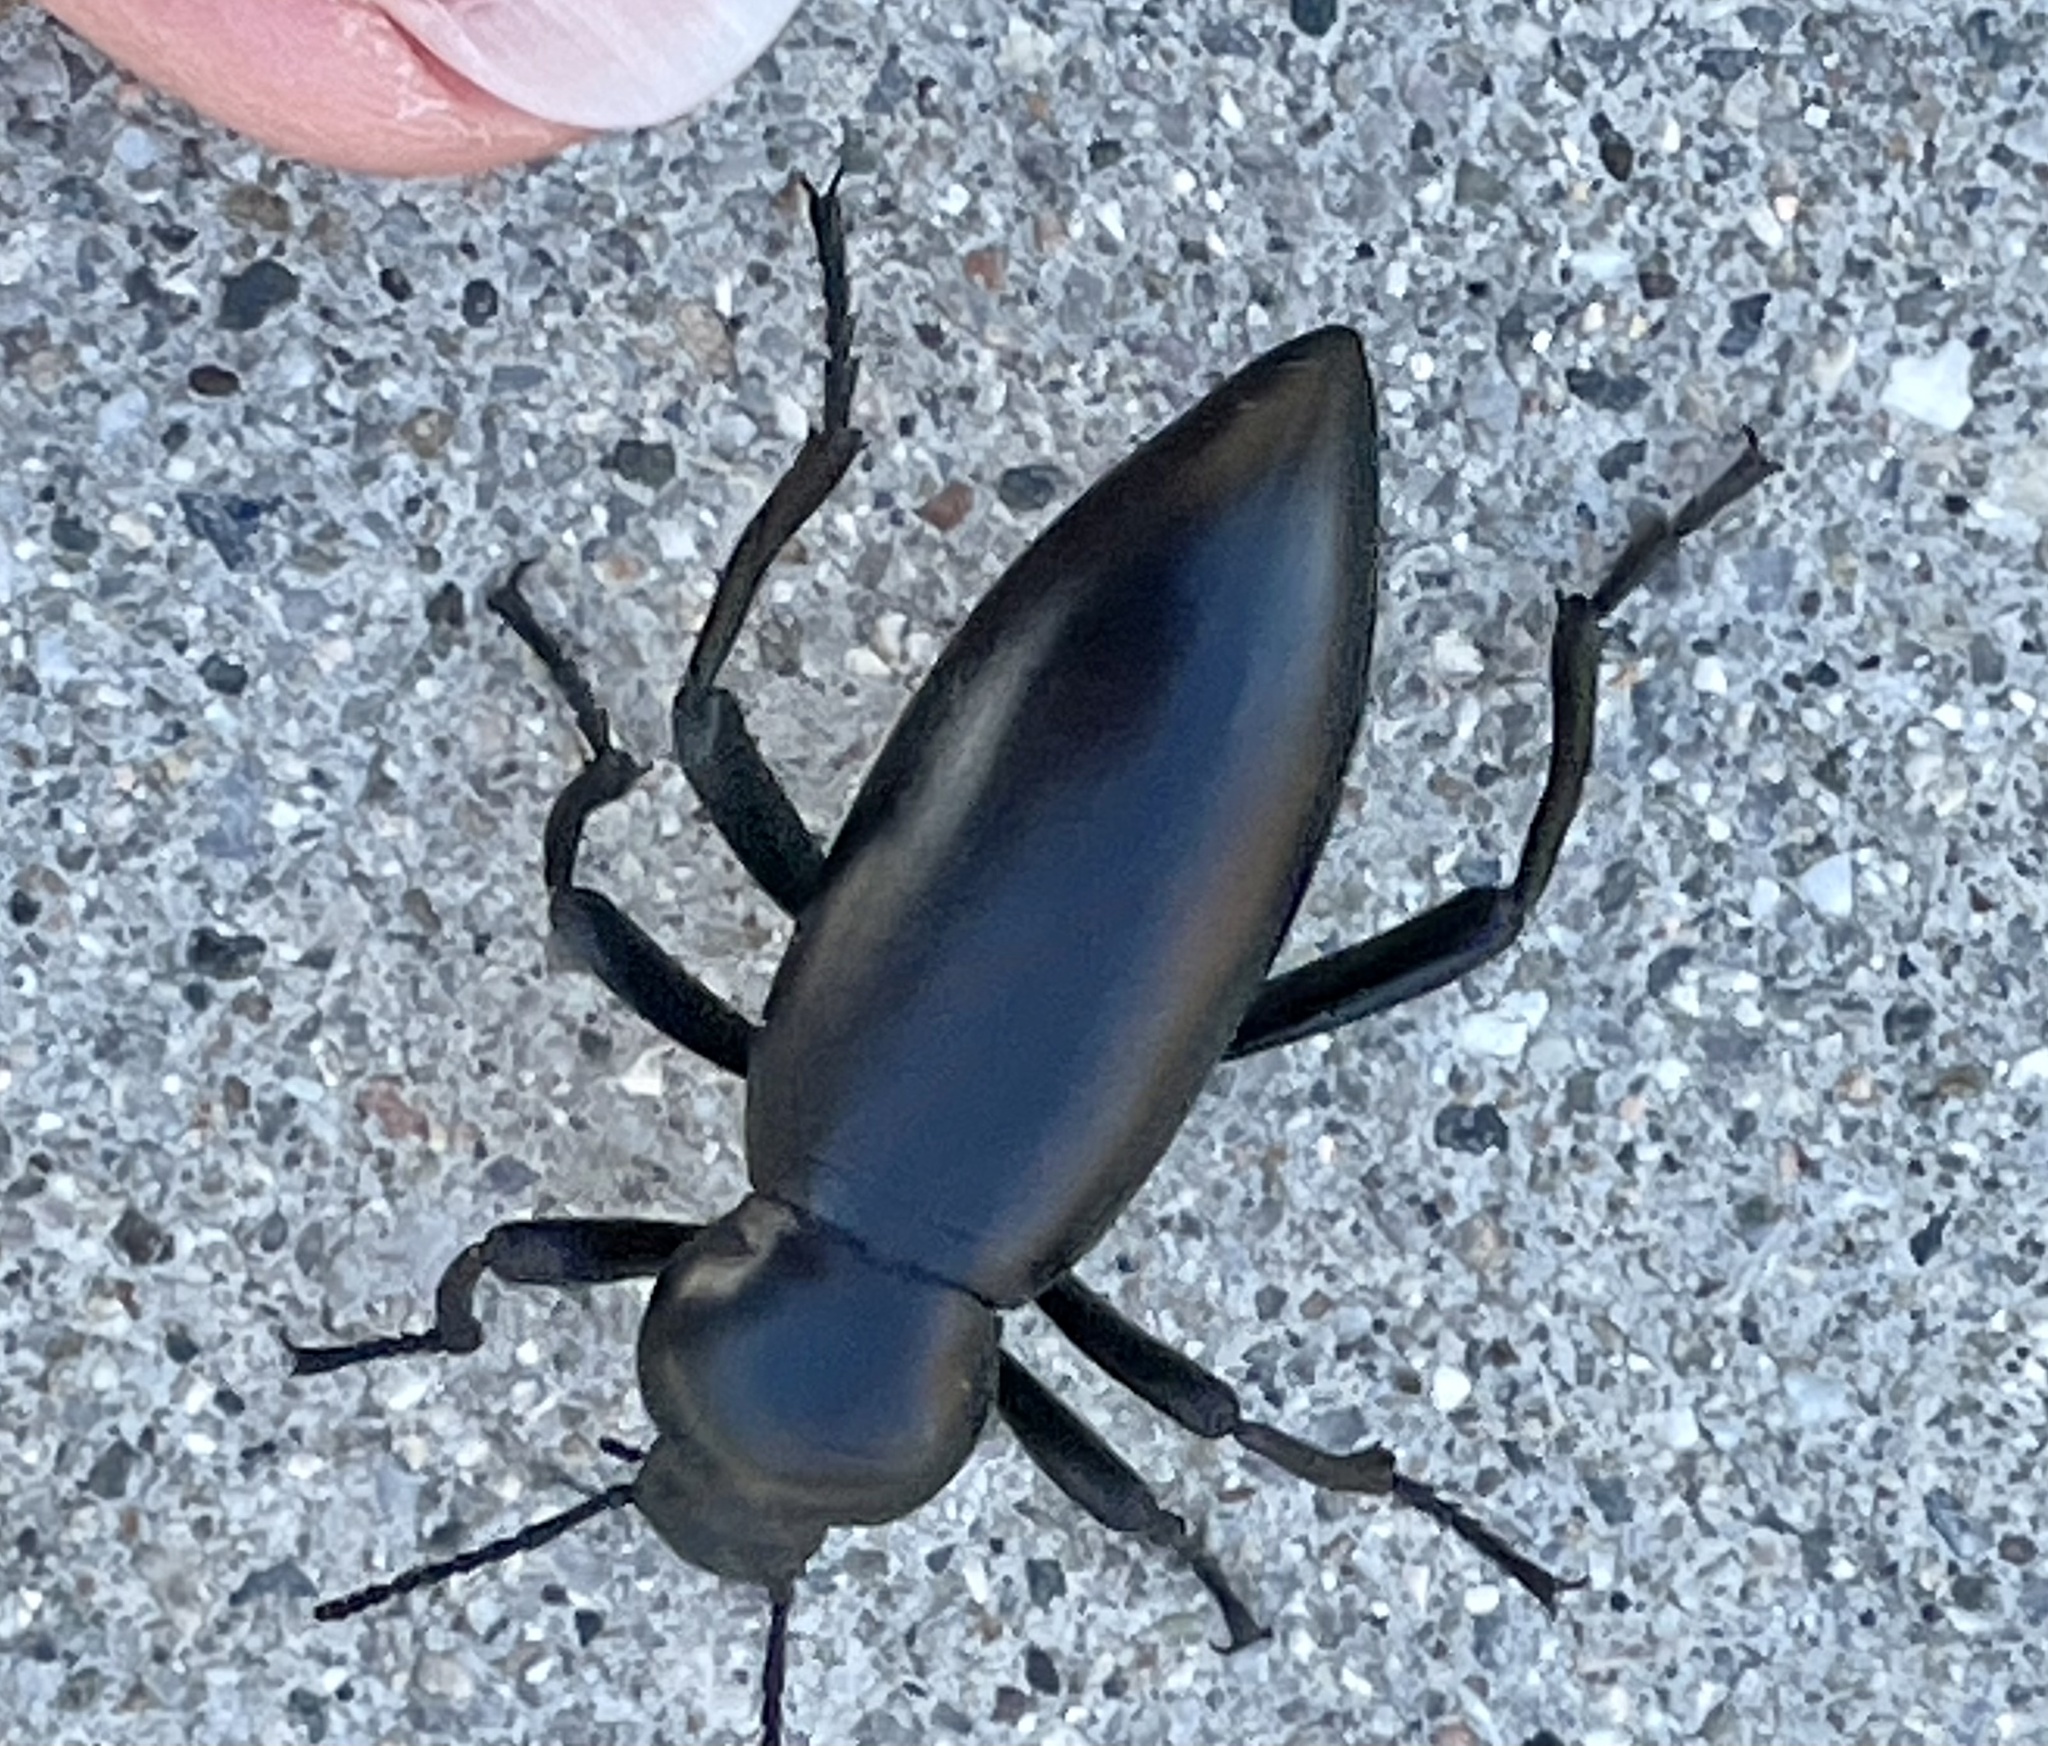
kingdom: Animalia
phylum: Arthropoda
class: Insecta
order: Coleoptera
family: Tenebrionidae
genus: Eleodes
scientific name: Eleodes gigantea
